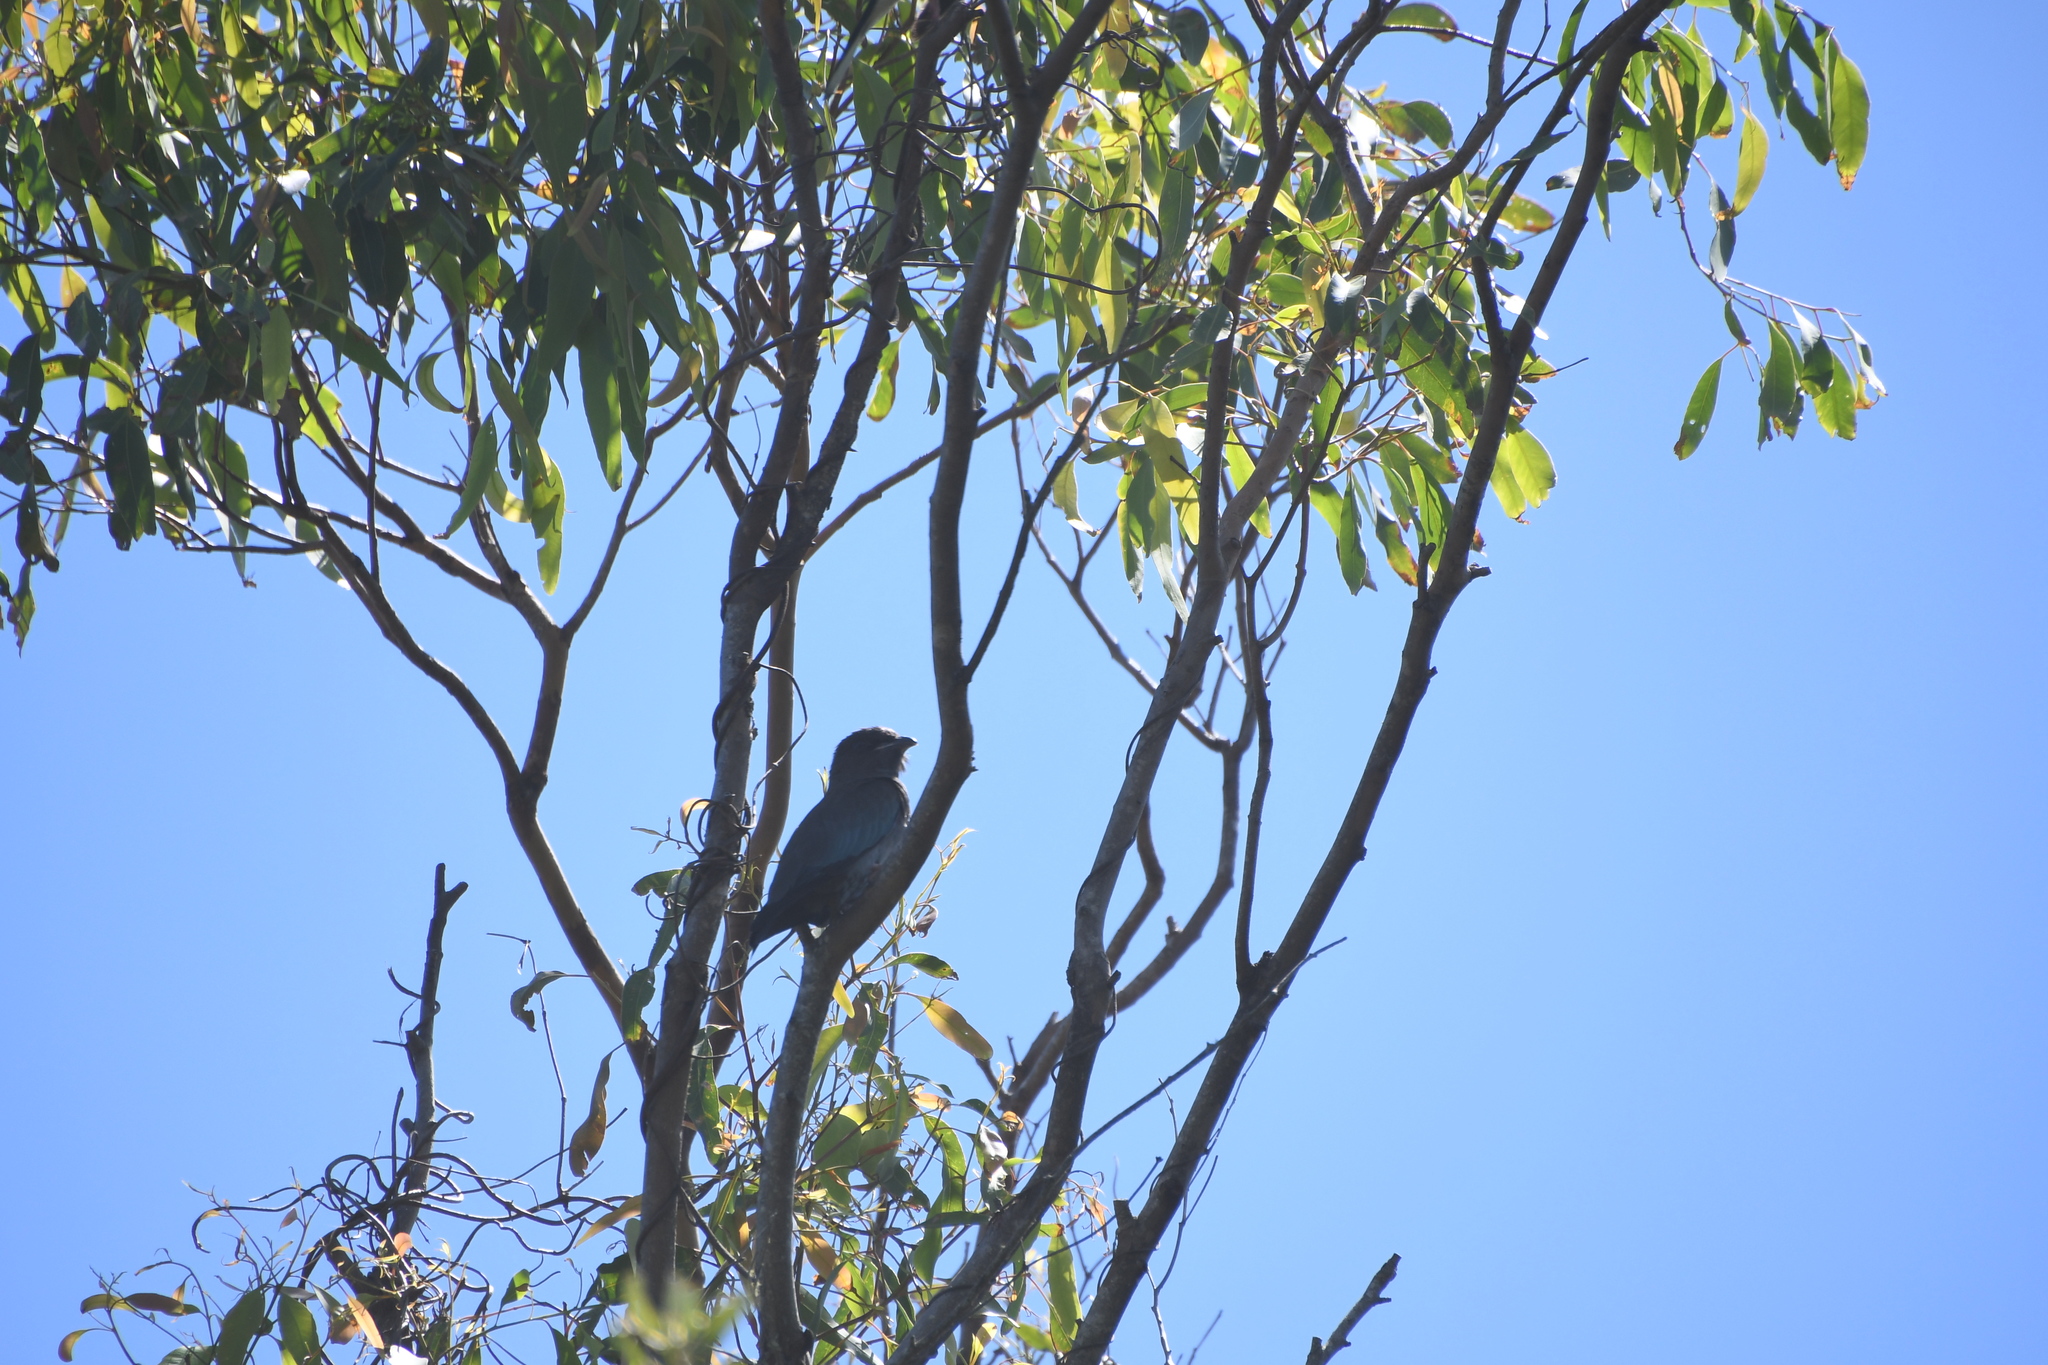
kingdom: Animalia
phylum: Chordata
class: Aves
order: Coraciiformes
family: Coraciidae
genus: Eurystomus
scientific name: Eurystomus orientalis
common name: Oriental dollarbird
